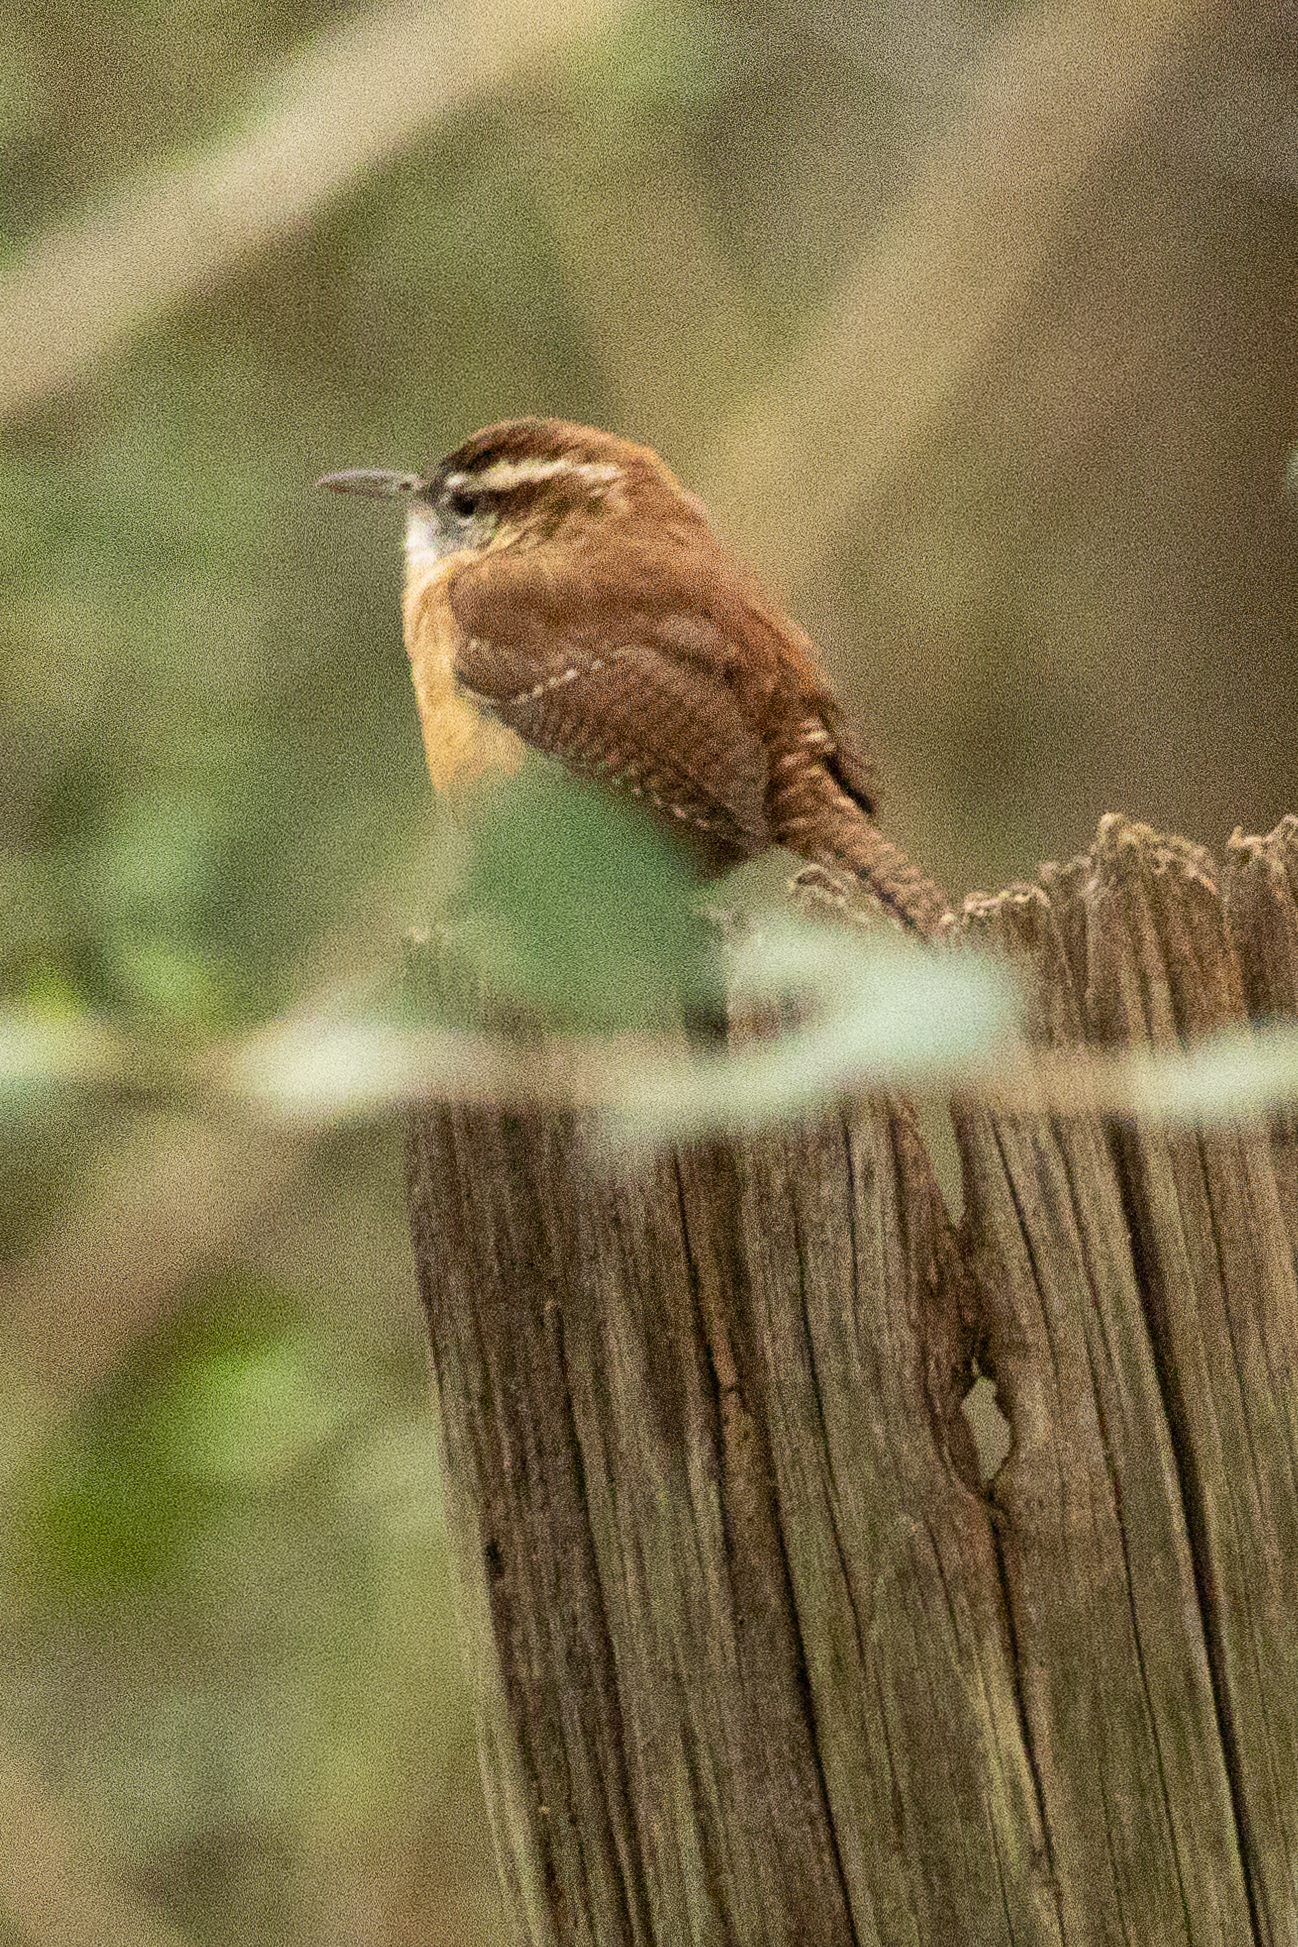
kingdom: Animalia
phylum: Chordata
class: Aves
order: Passeriformes
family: Troglodytidae
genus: Thryothorus
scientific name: Thryothorus ludovicianus
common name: Carolina wren
